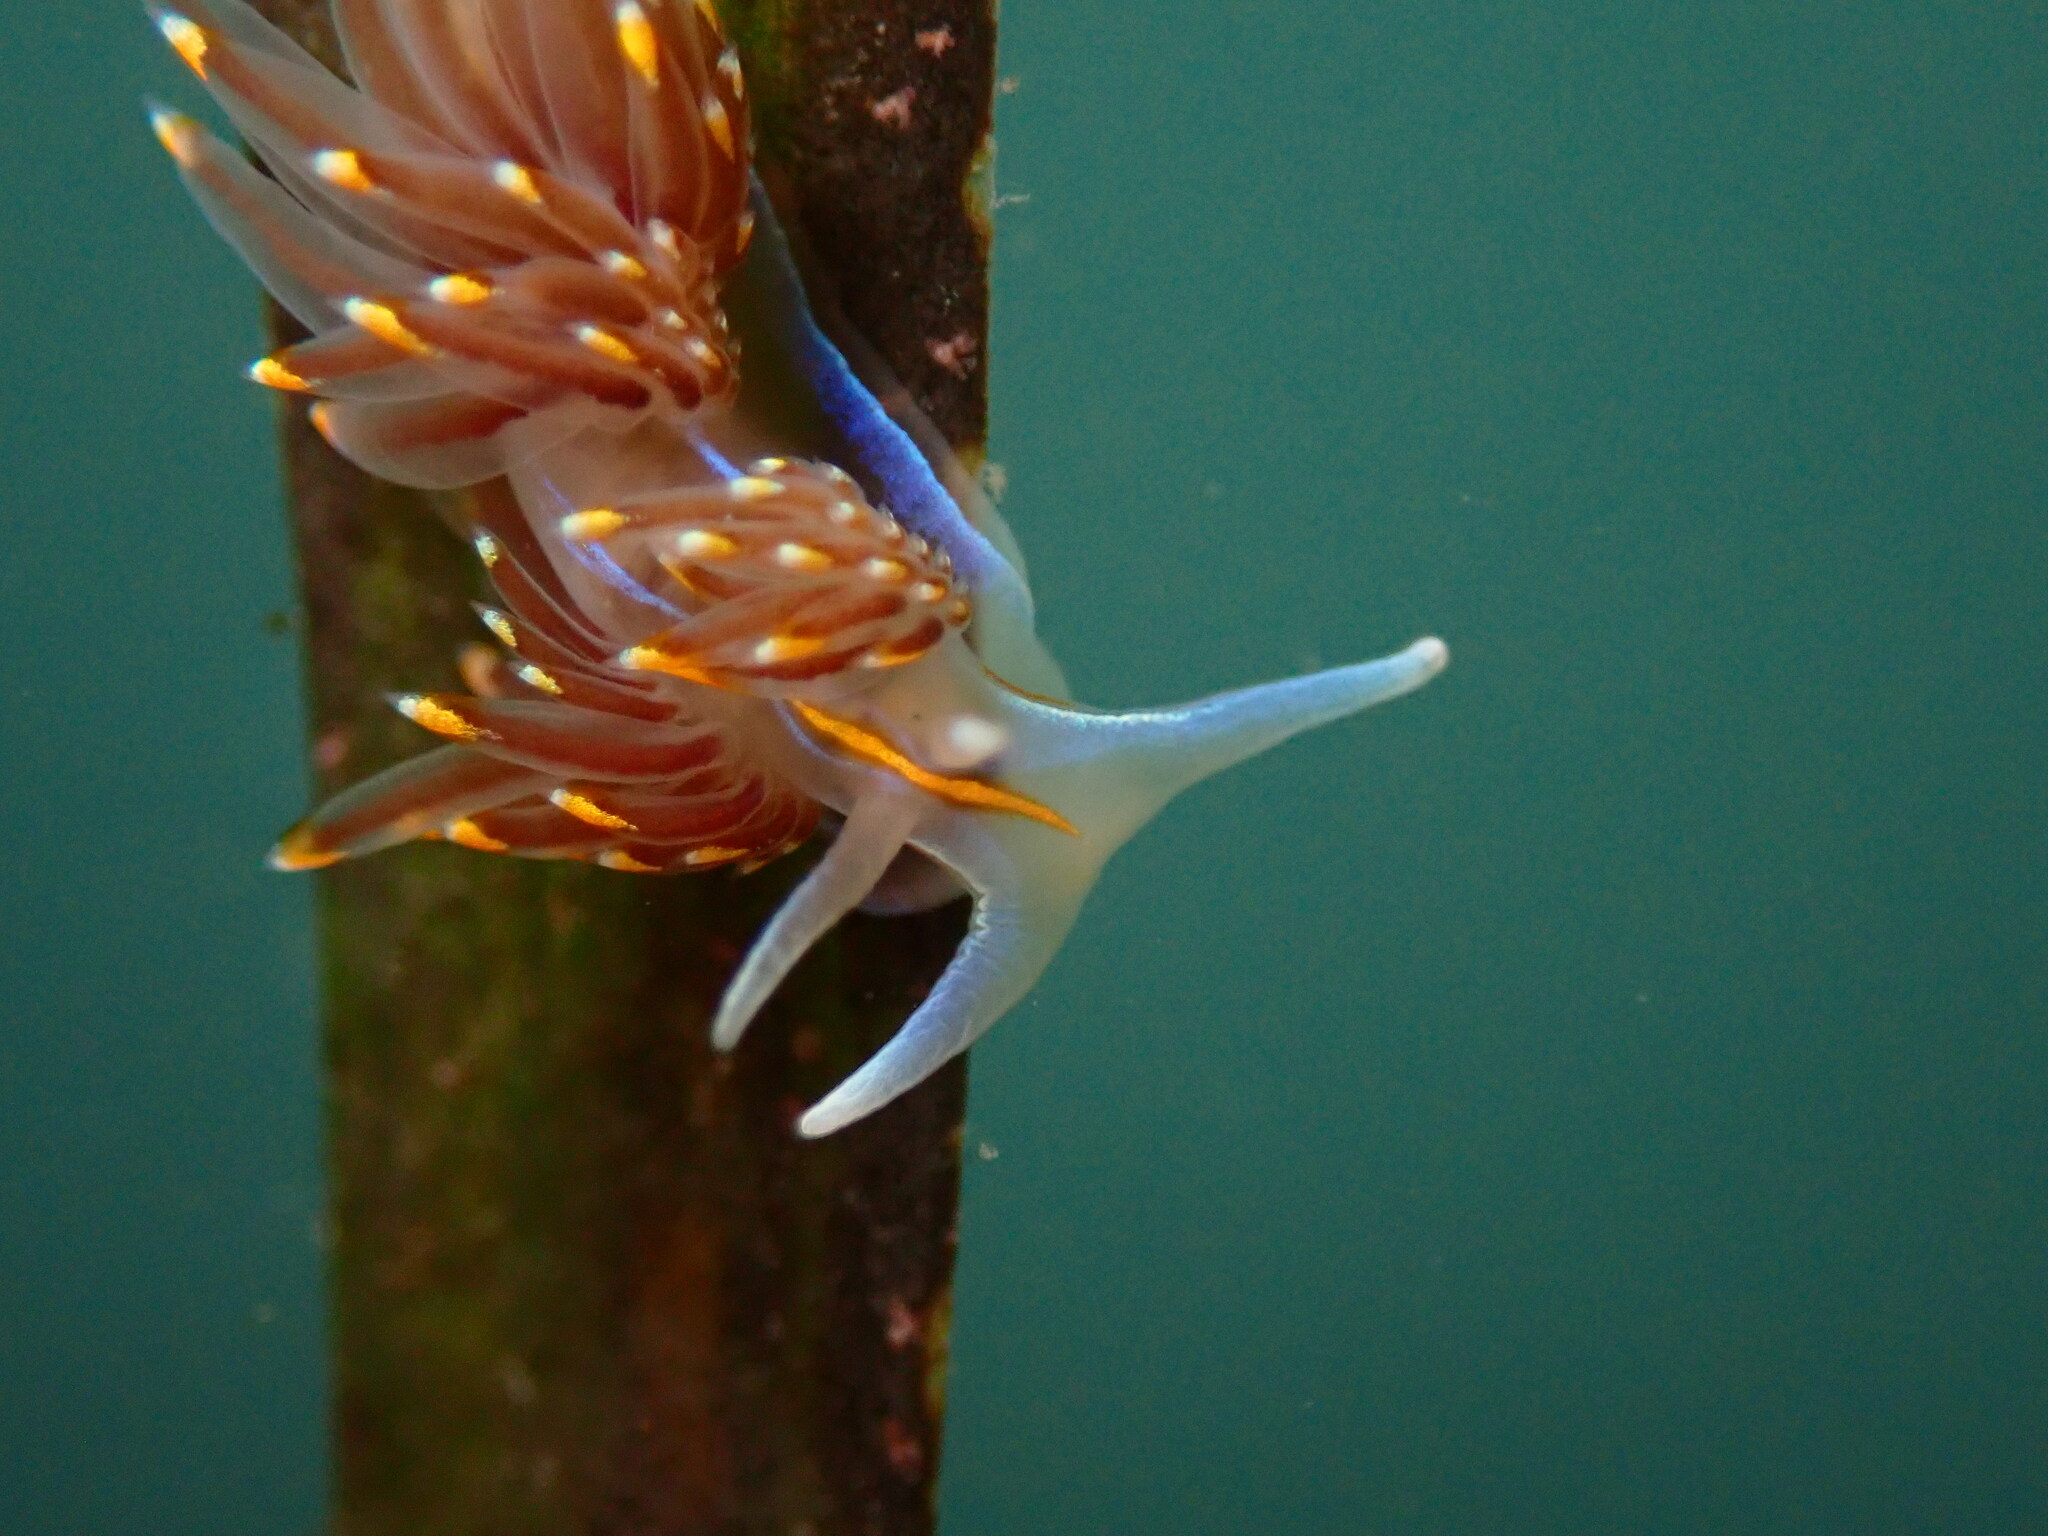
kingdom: Animalia
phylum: Mollusca
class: Gastropoda
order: Nudibranchia
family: Myrrhinidae
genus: Hermissenda
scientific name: Hermissenda opalescens
